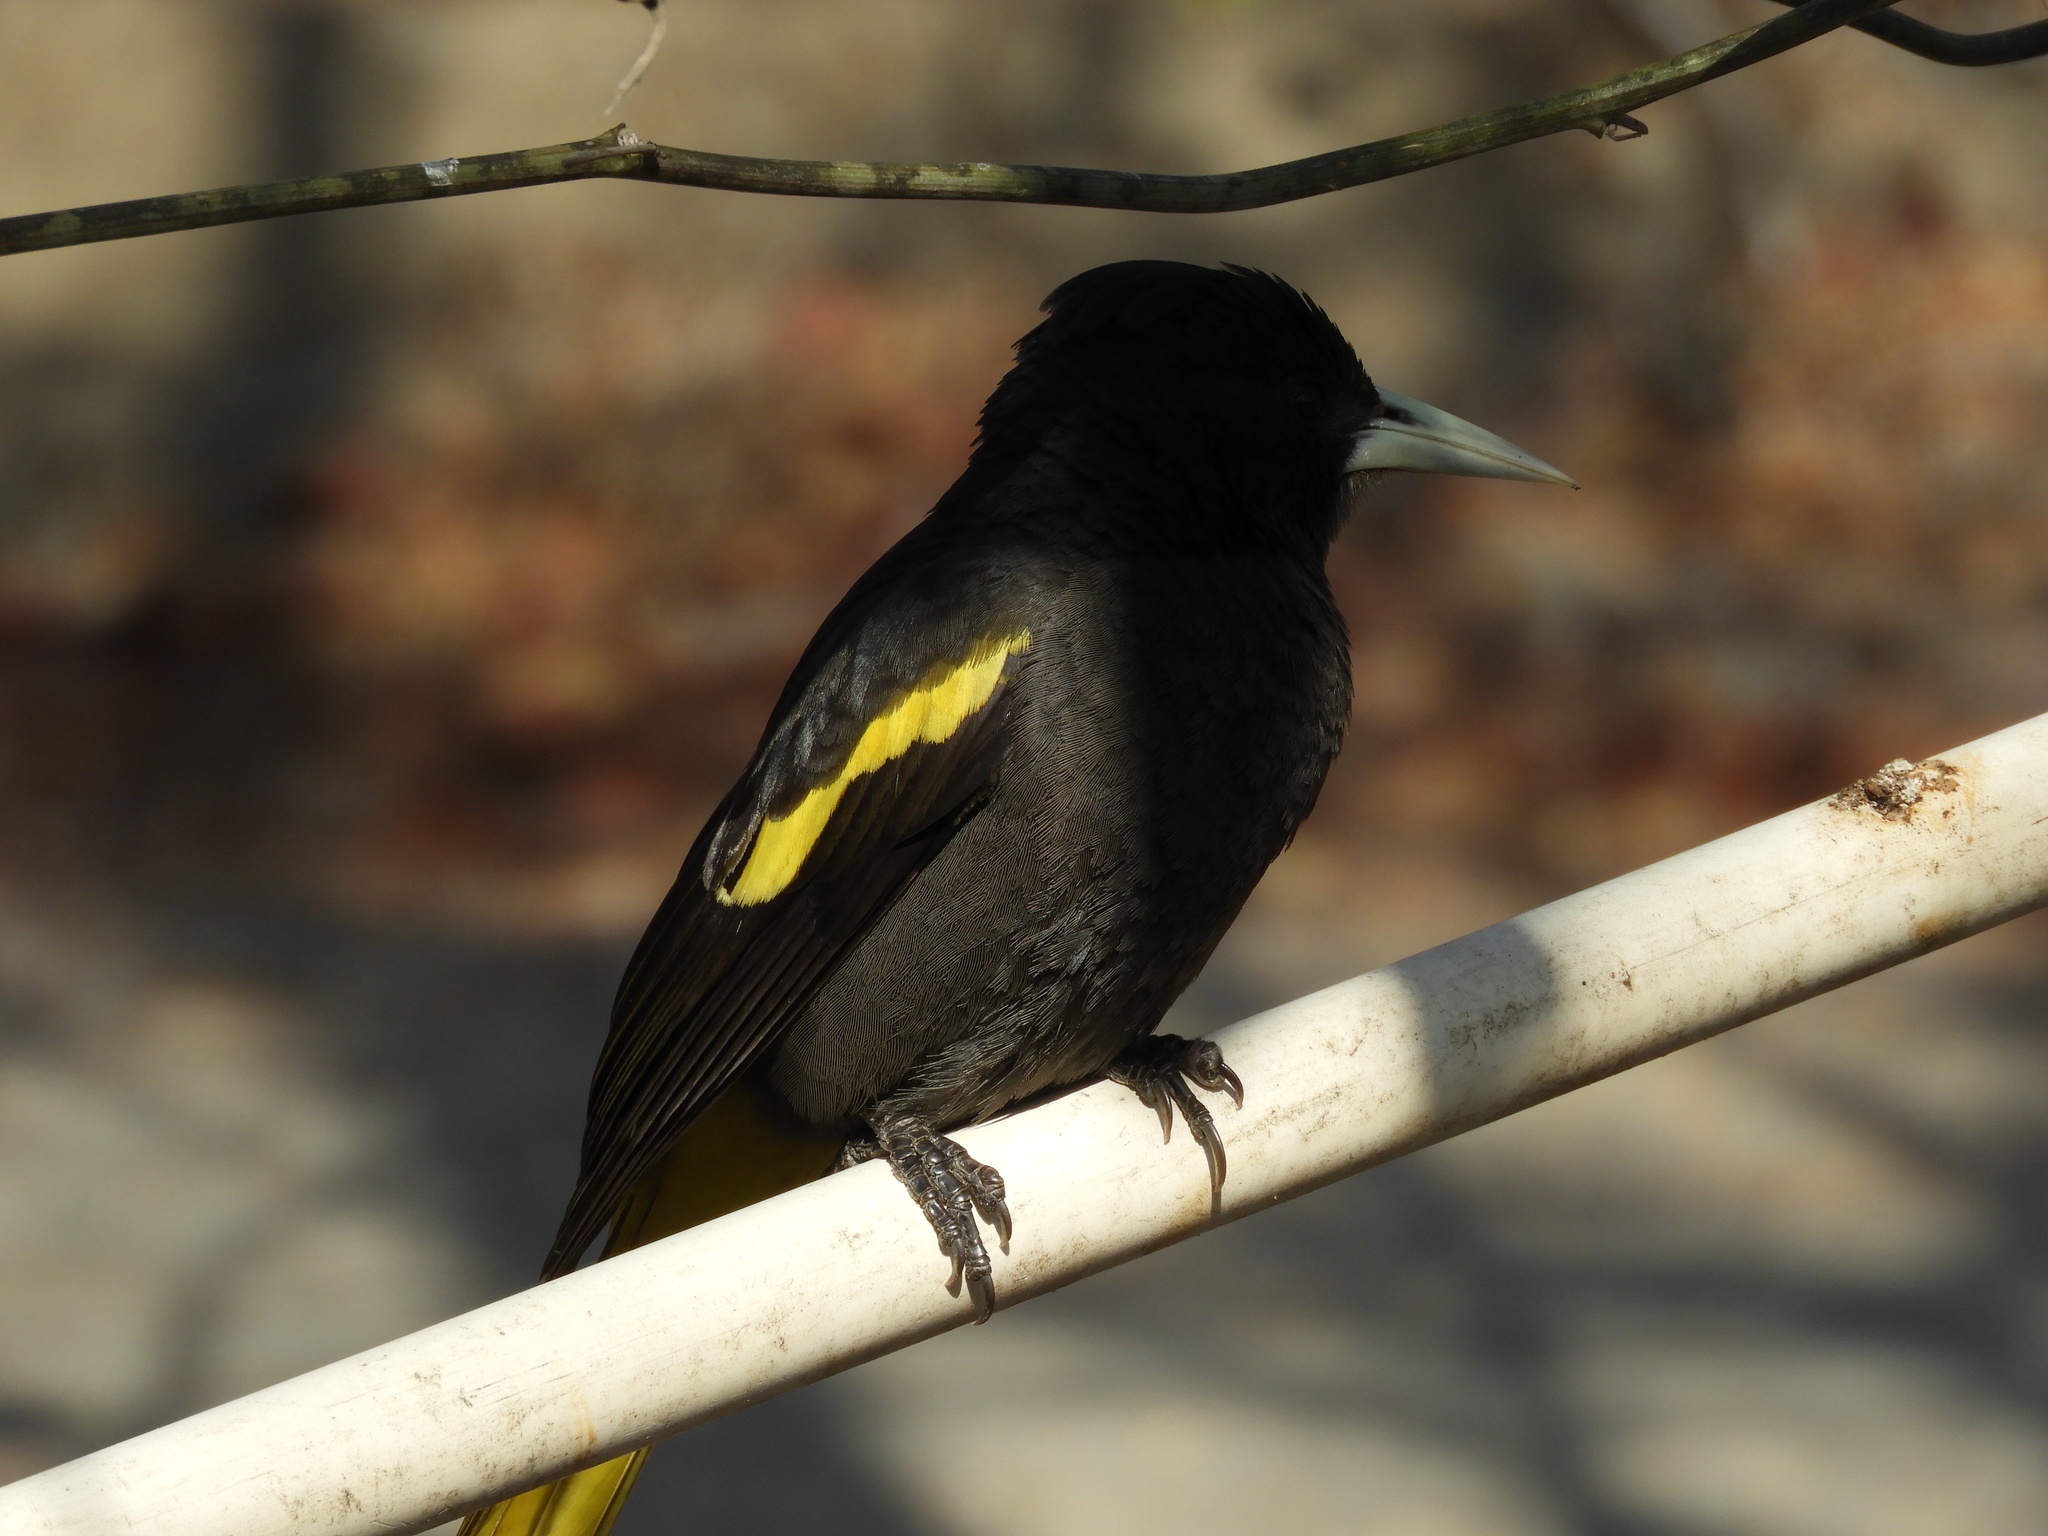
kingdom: Animalia
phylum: Chordata
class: Aves
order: Passeriformes
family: Icteridae
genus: Cacicus
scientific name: Cacicus melanicterus
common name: Yellow-winged cacique
